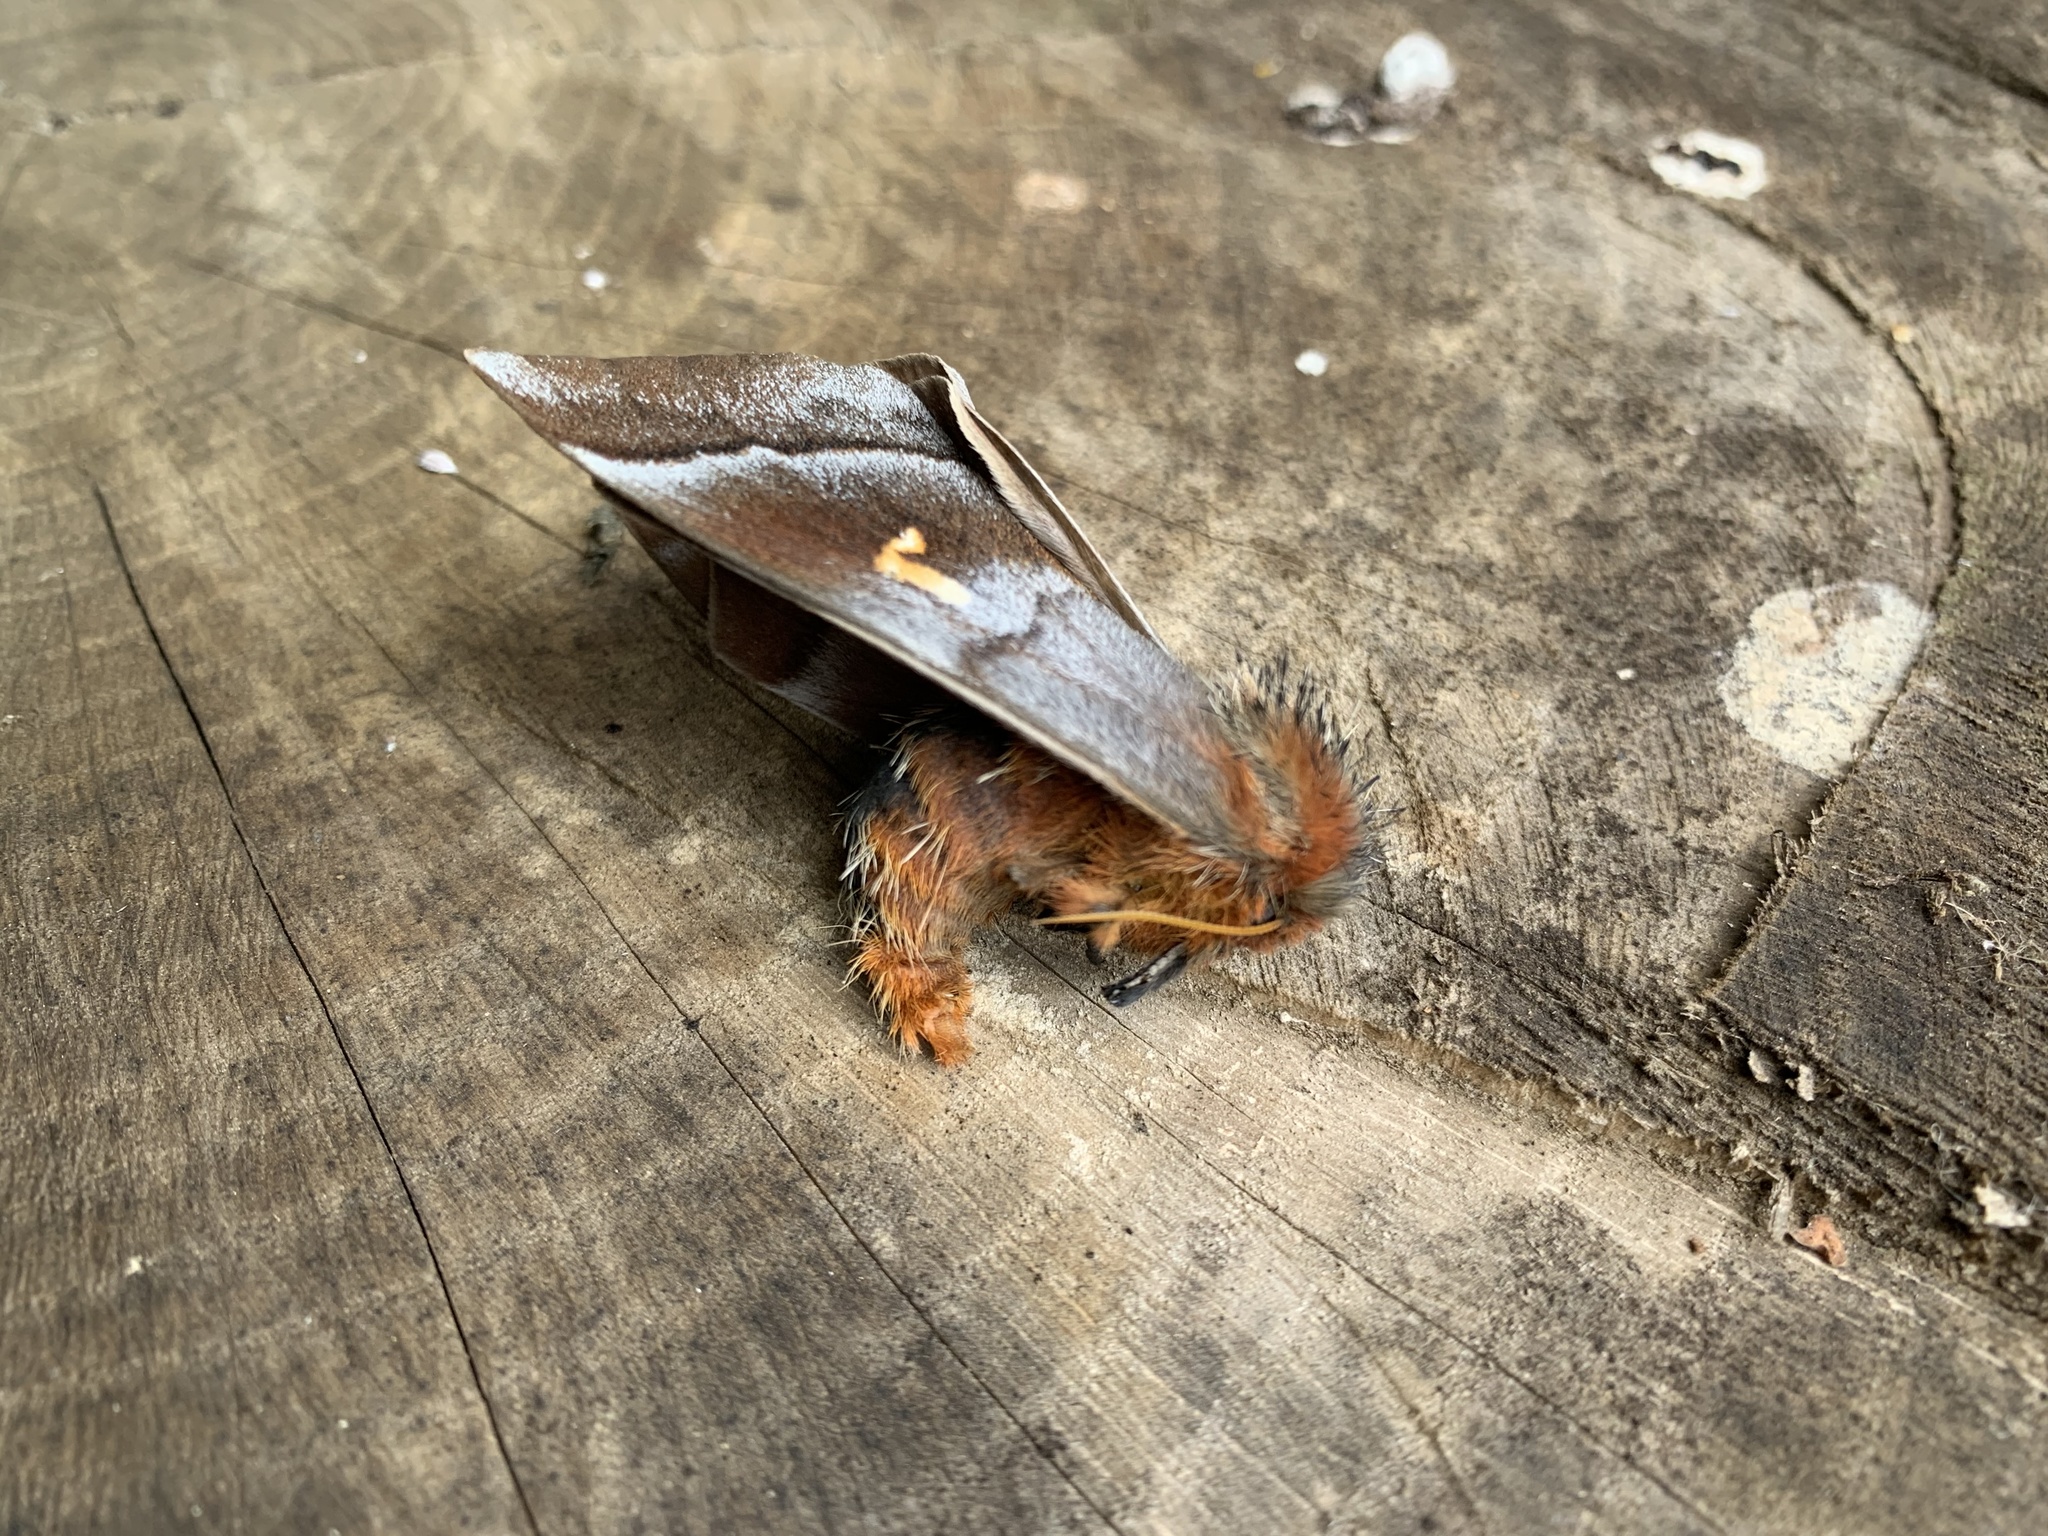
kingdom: Animalia
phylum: Arthropoda
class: Insecta
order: Lepidoptera
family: Saturniidae
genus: Ormiscodes
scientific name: Ormiscodes cinnamomea
